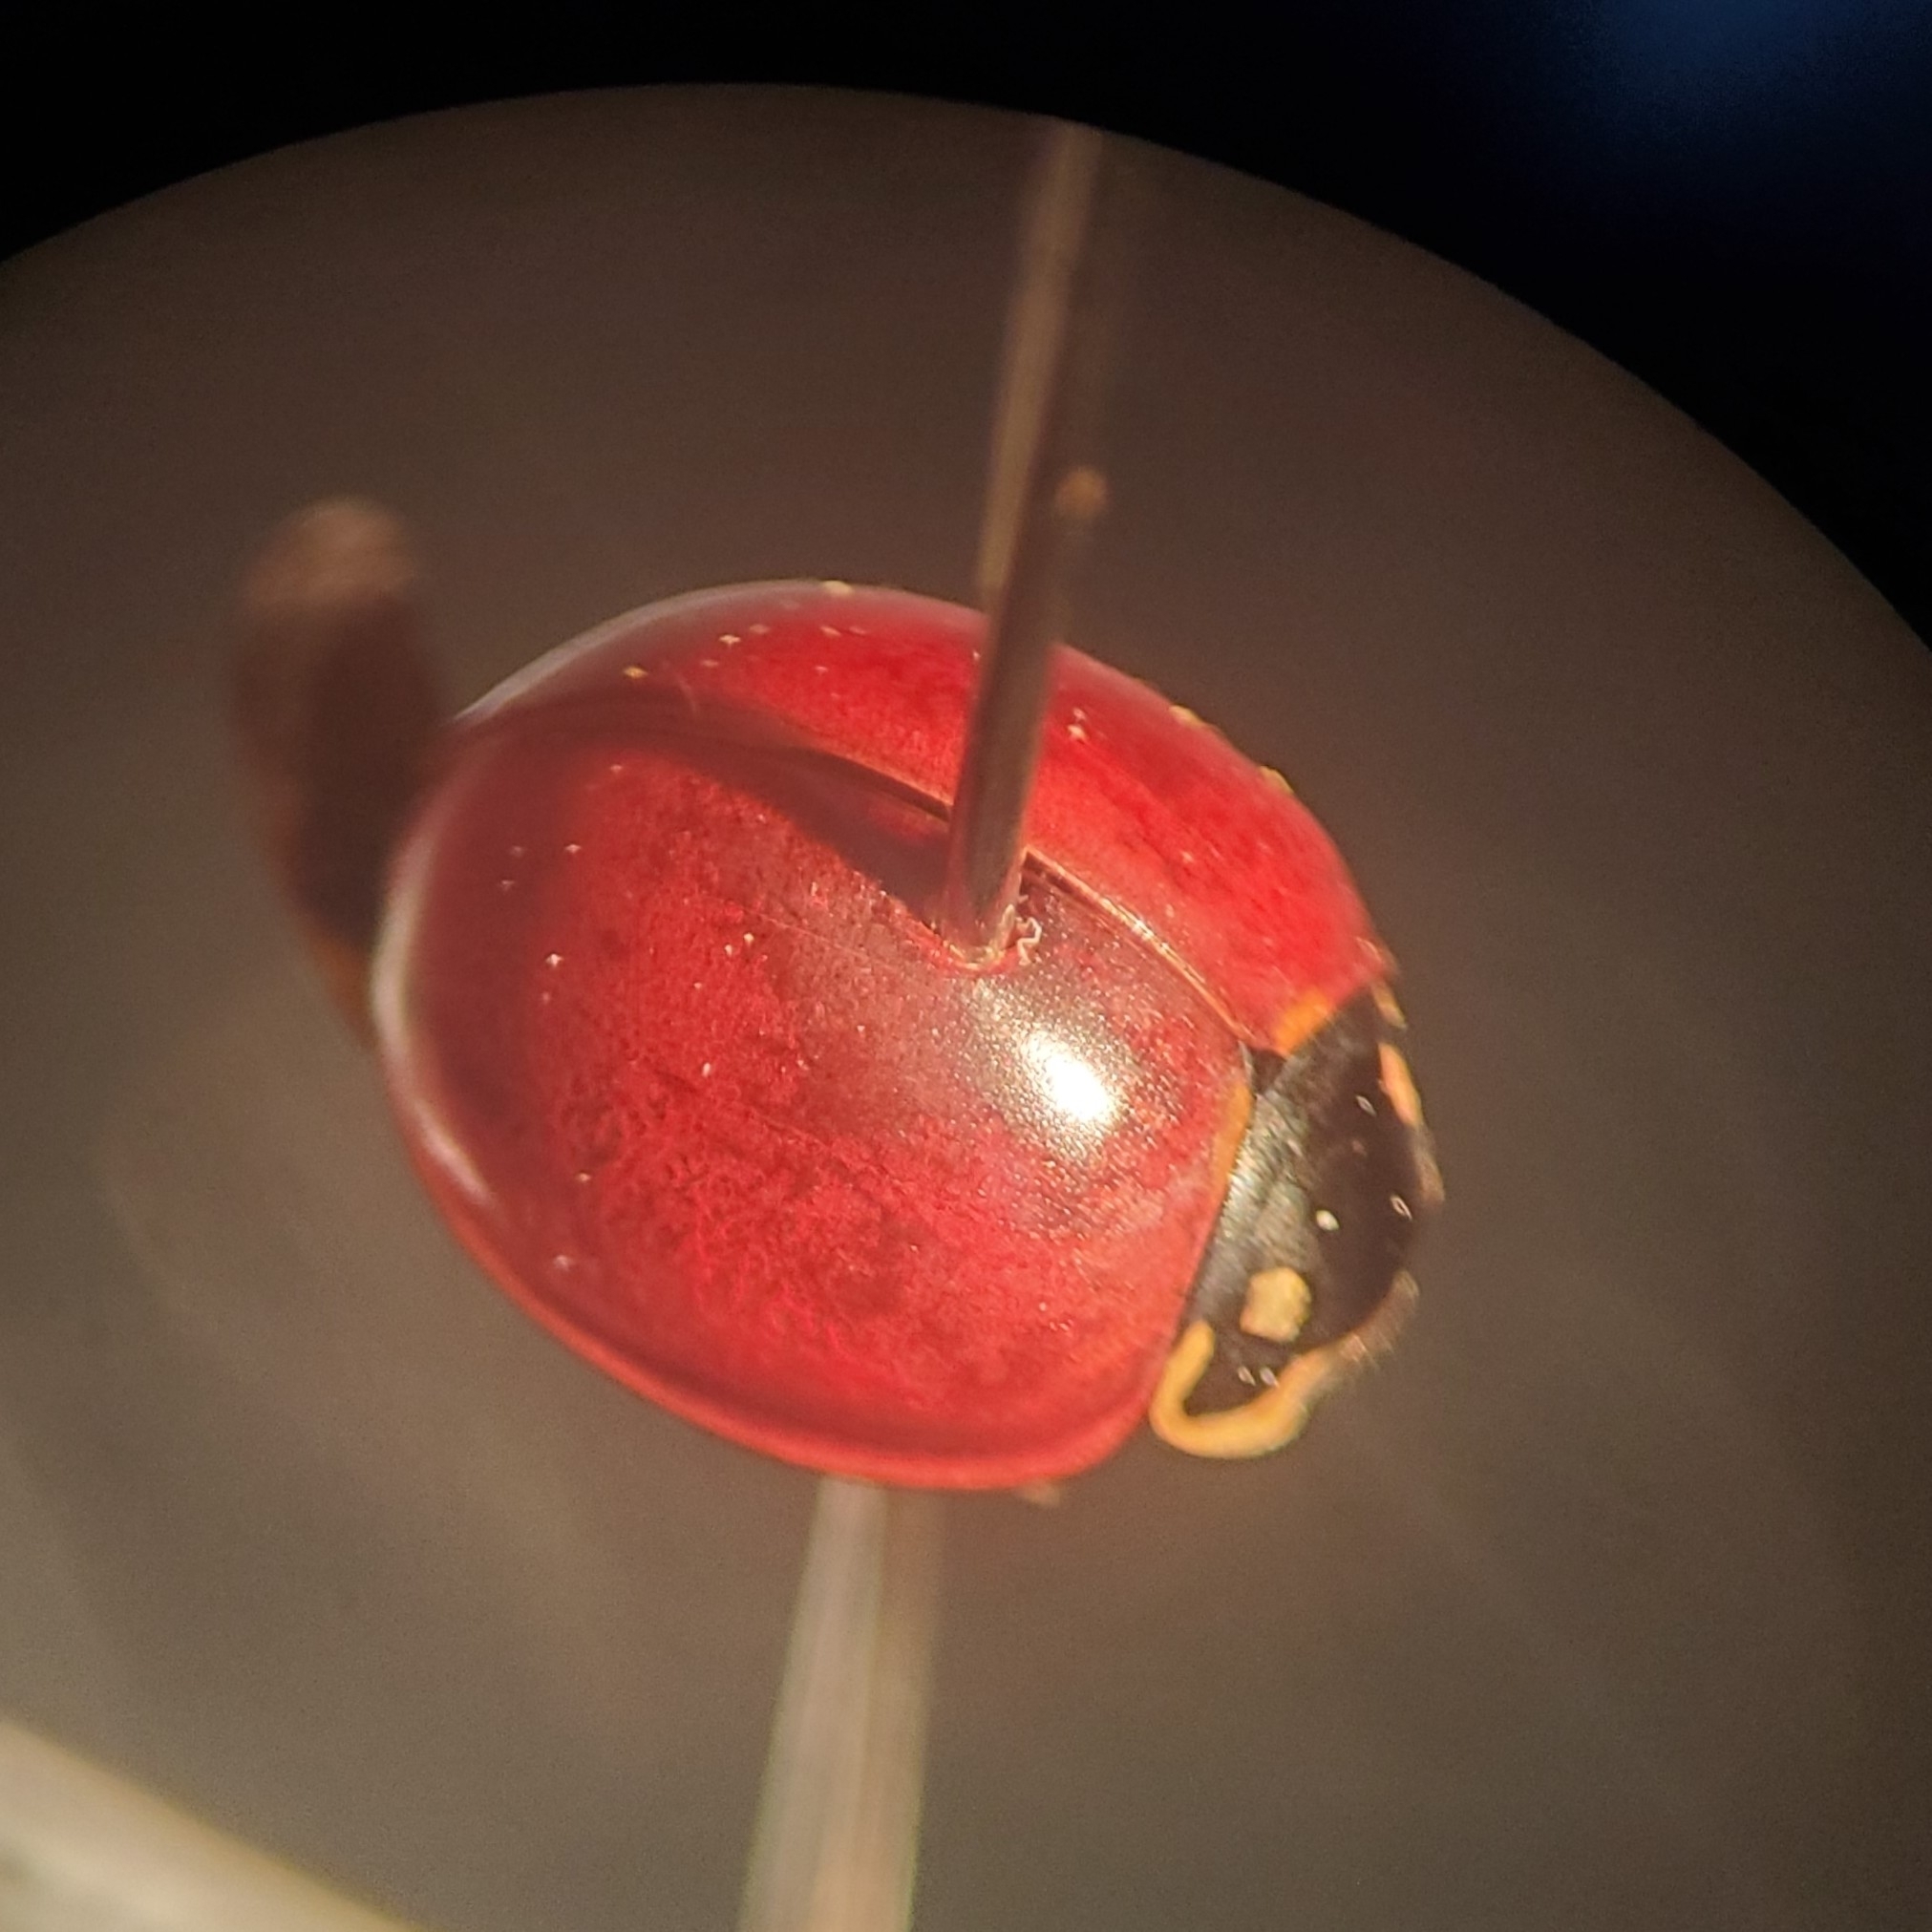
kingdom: Animalia
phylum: Arthropoda
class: Insecta
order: Coleoptera
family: Coccinellidae
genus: Cycloneda
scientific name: Cycloneda sanguinea
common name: Ladybird beetle
